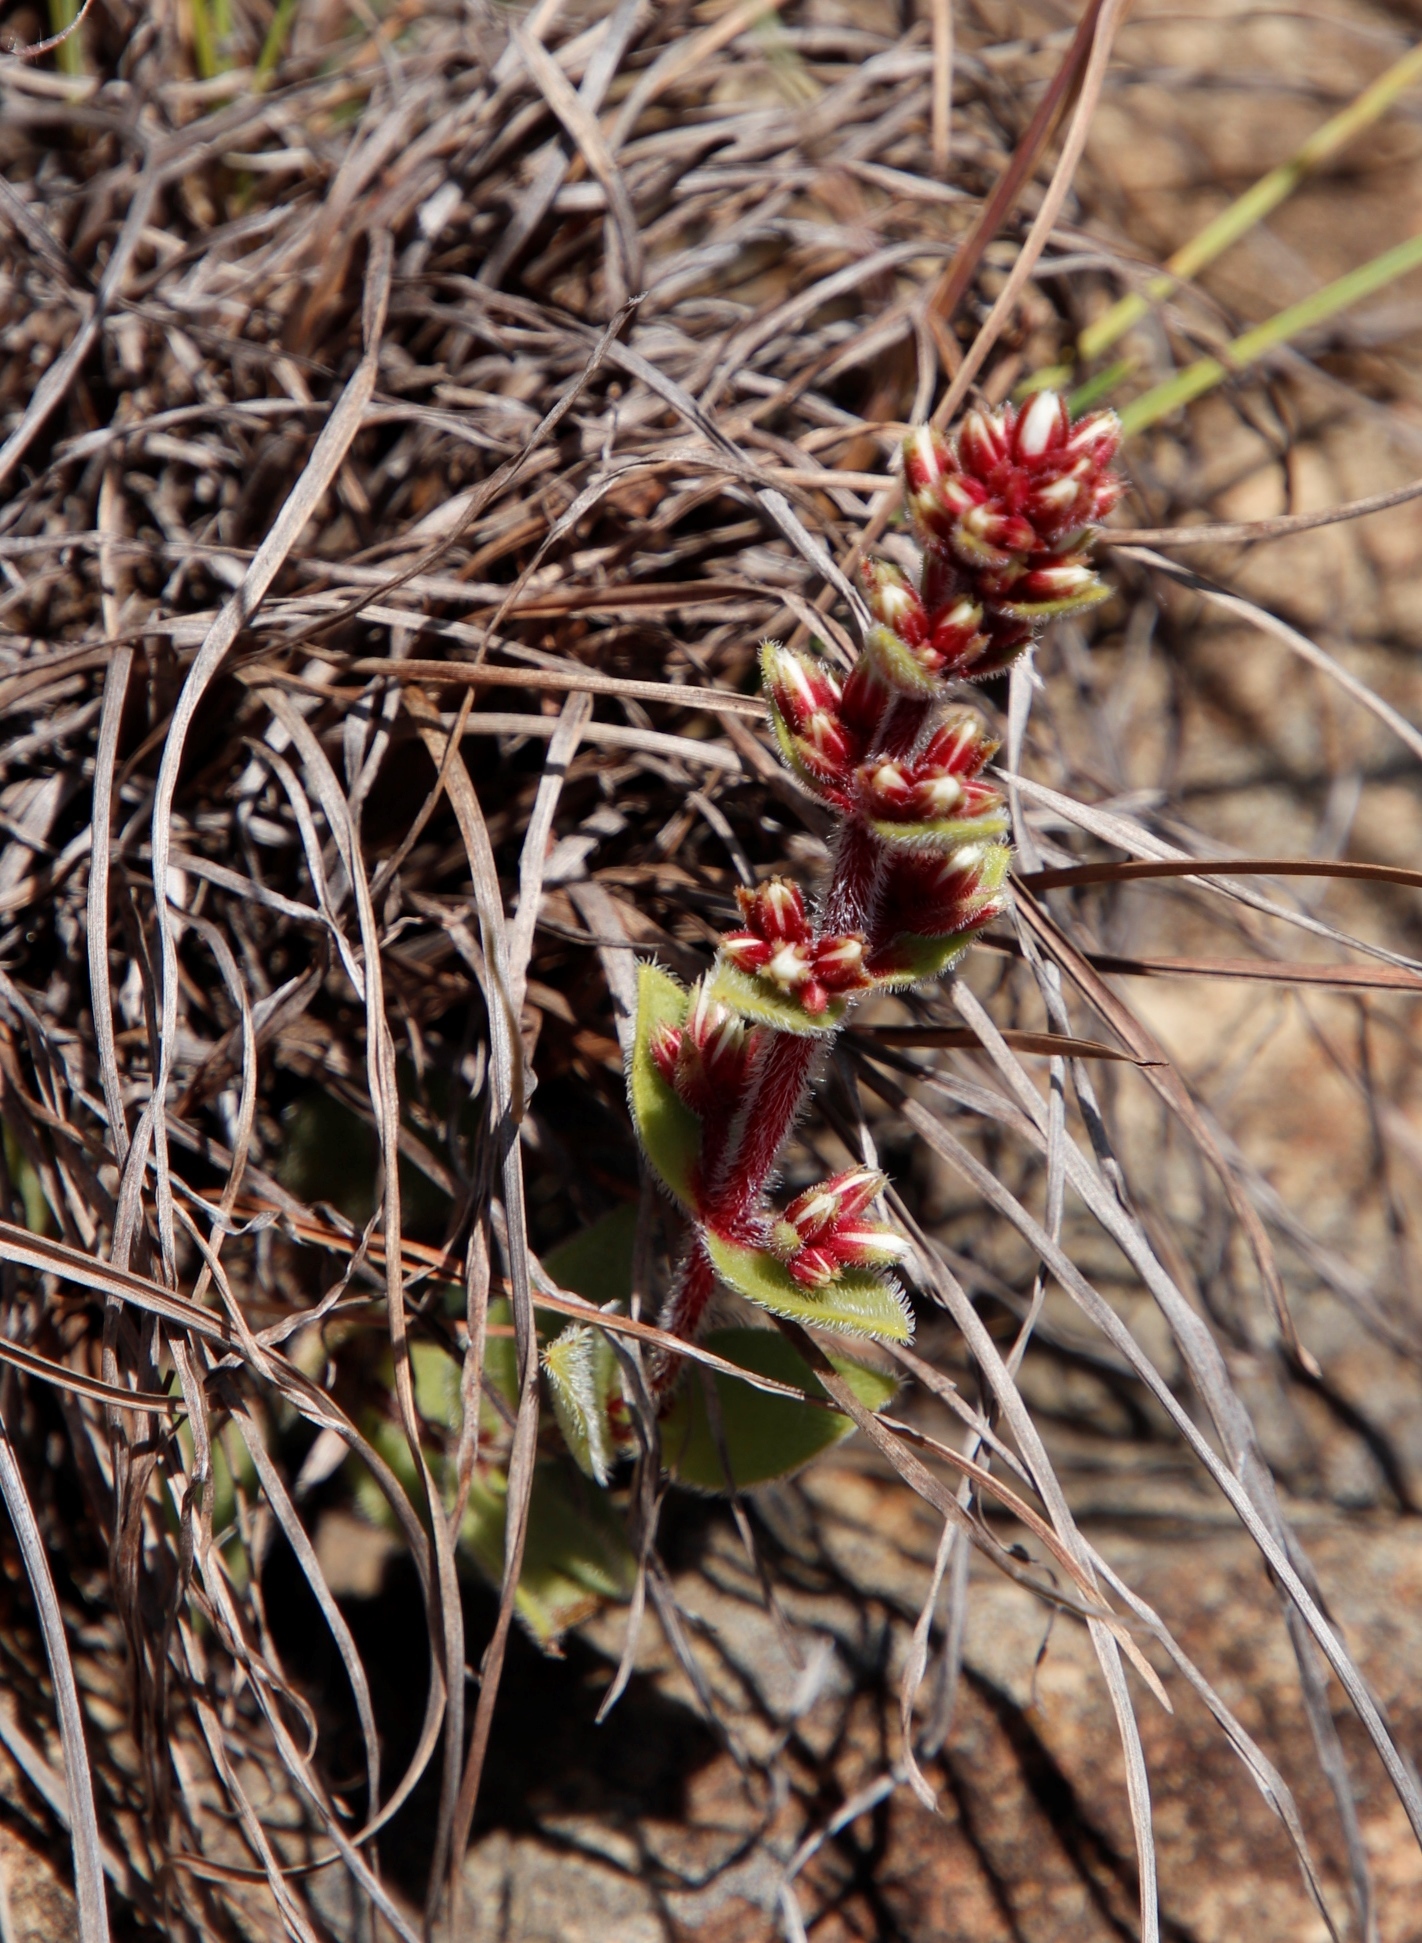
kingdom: Plantae
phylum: Tracheophyta
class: Magnoliopsida
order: Saxifragales
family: Crassulaceae
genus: Crassula
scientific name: Crassula obovata
